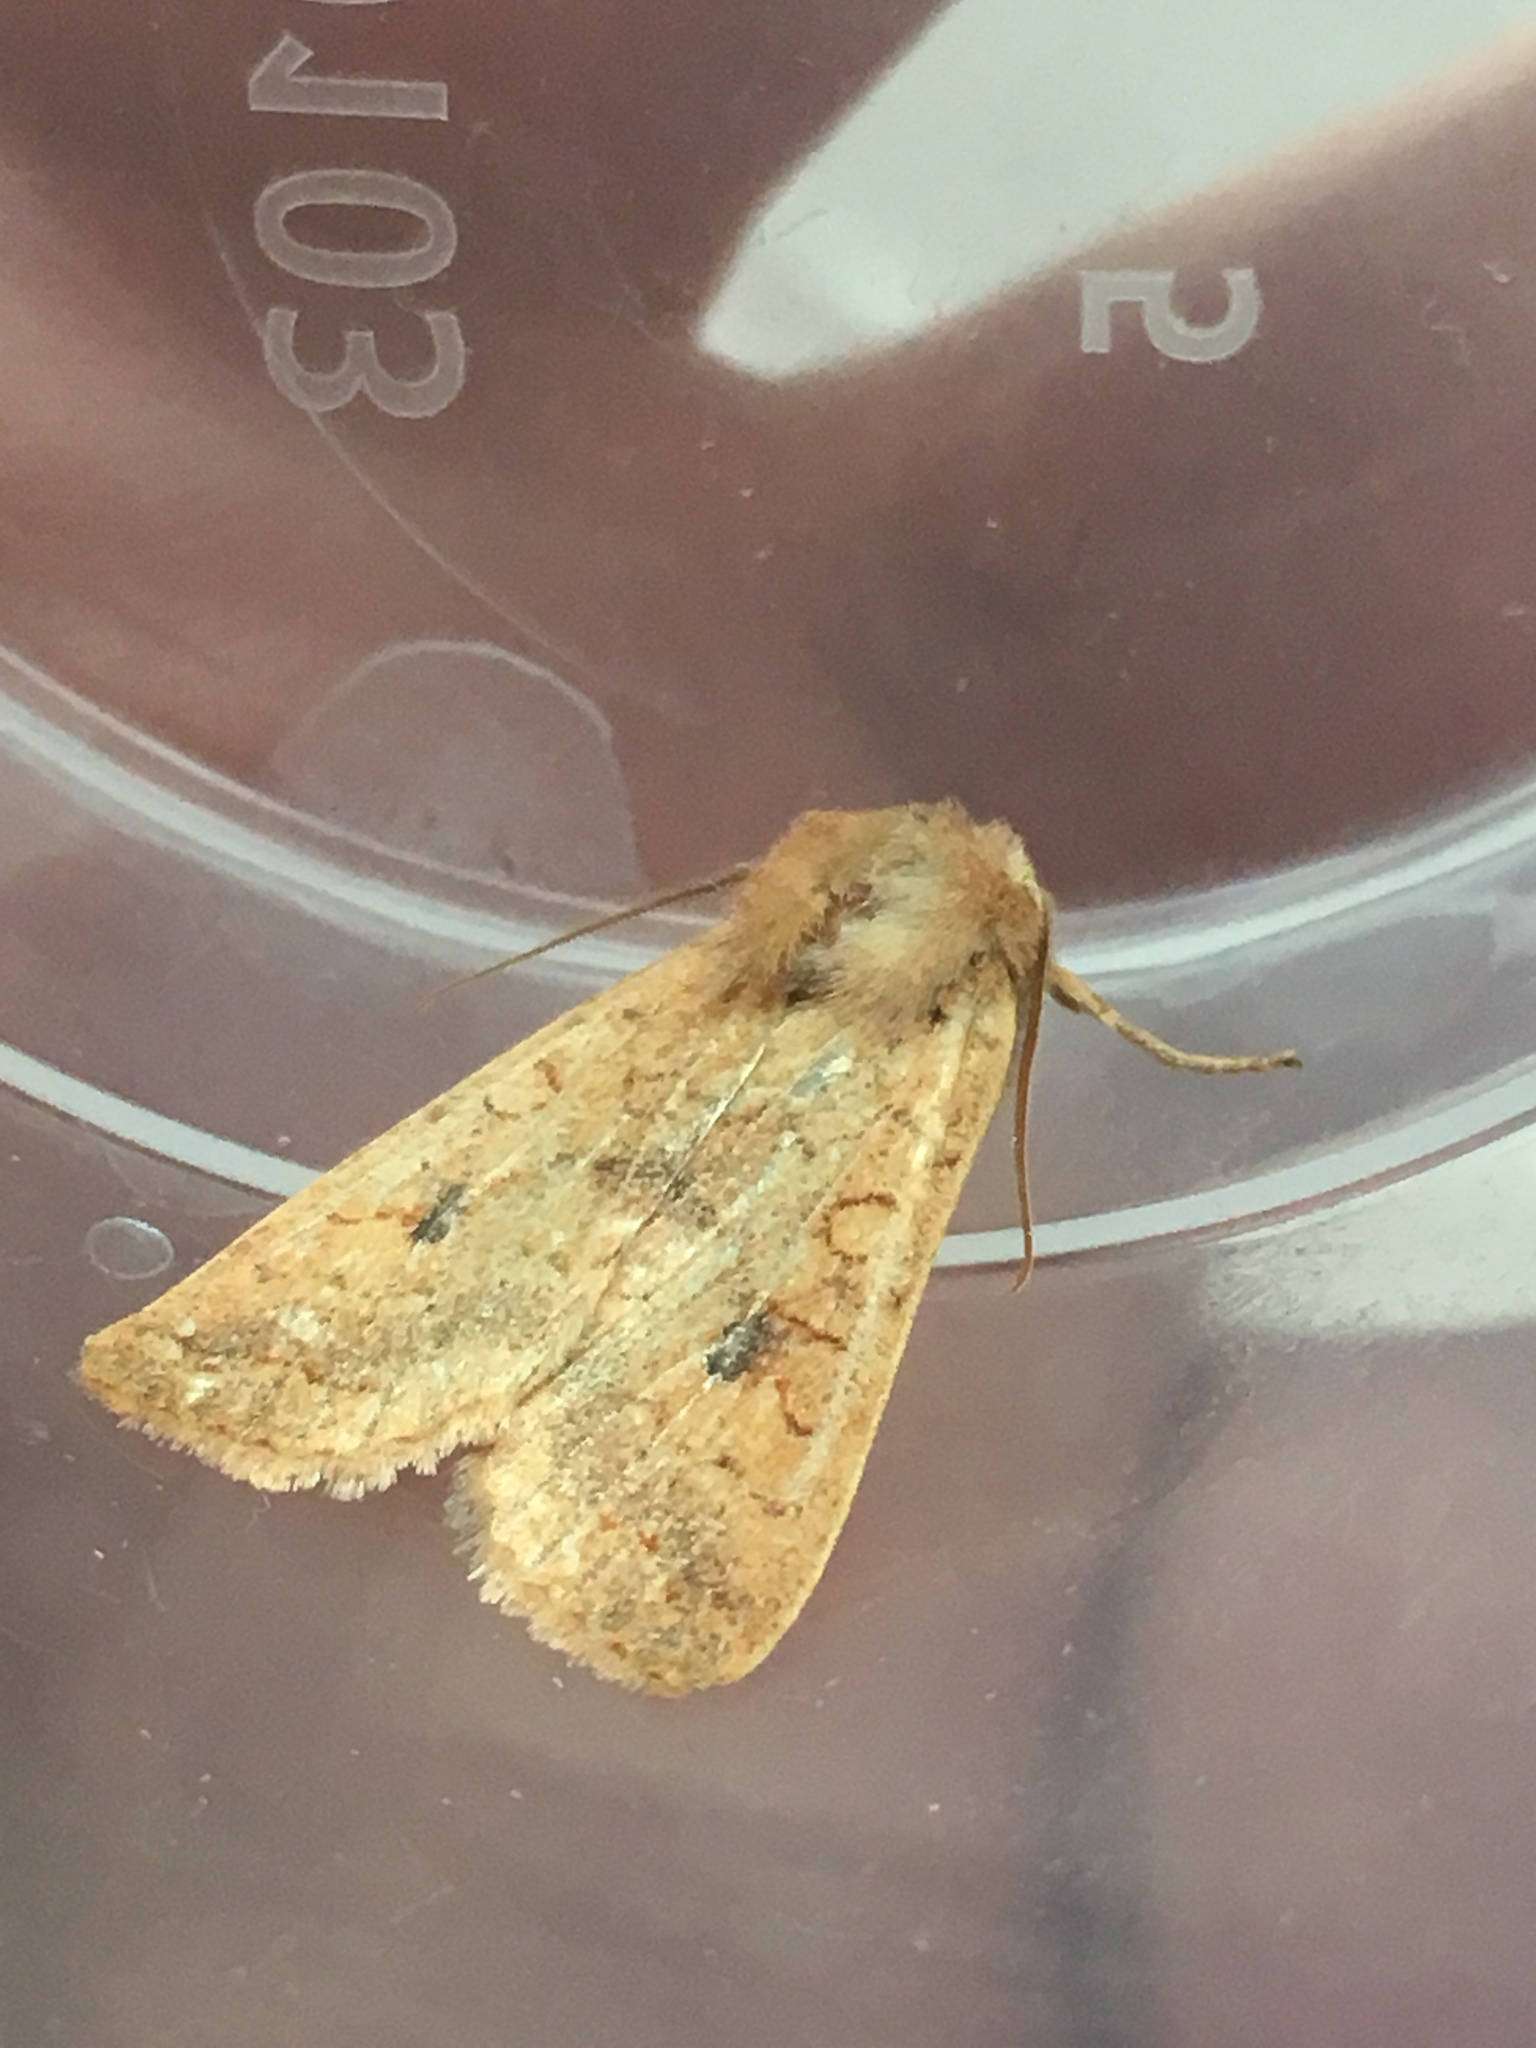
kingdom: Animalia
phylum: Arthropoda
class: Insecta
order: Lepidoptera
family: Noctuidae
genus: Sunira
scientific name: Sunira circellaris
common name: Brick
